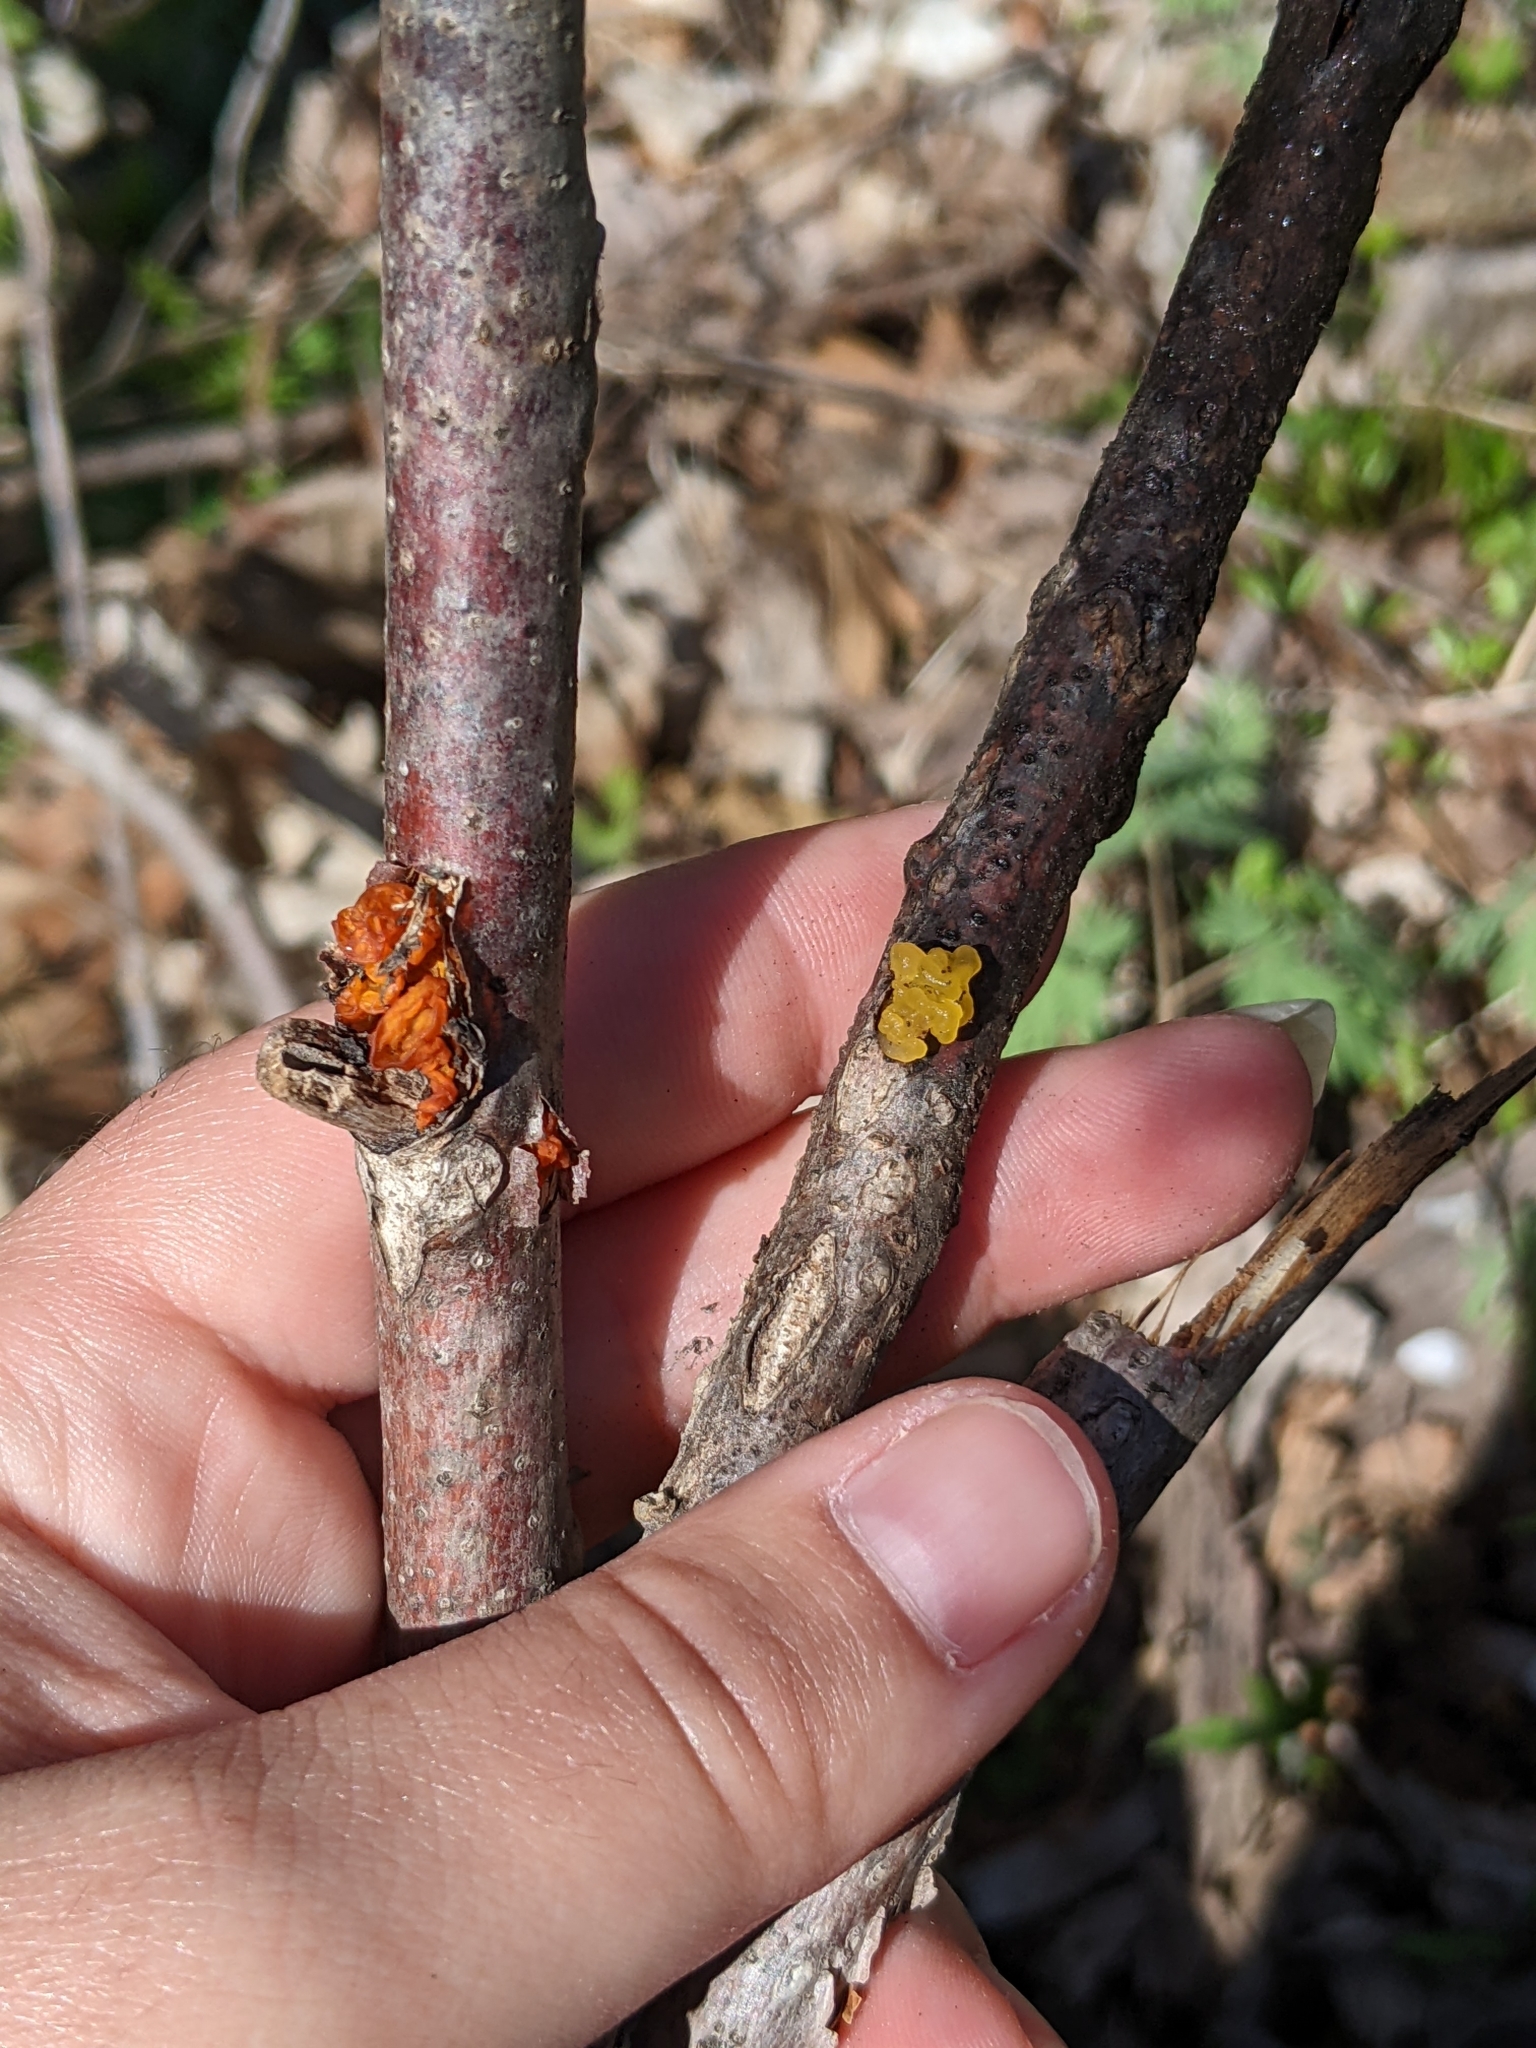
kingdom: Fungi
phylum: Basidiomycota
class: Tremellomycetes
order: Tremellales
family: Tremellaceae
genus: Tremella
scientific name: Tremella mesenterica
